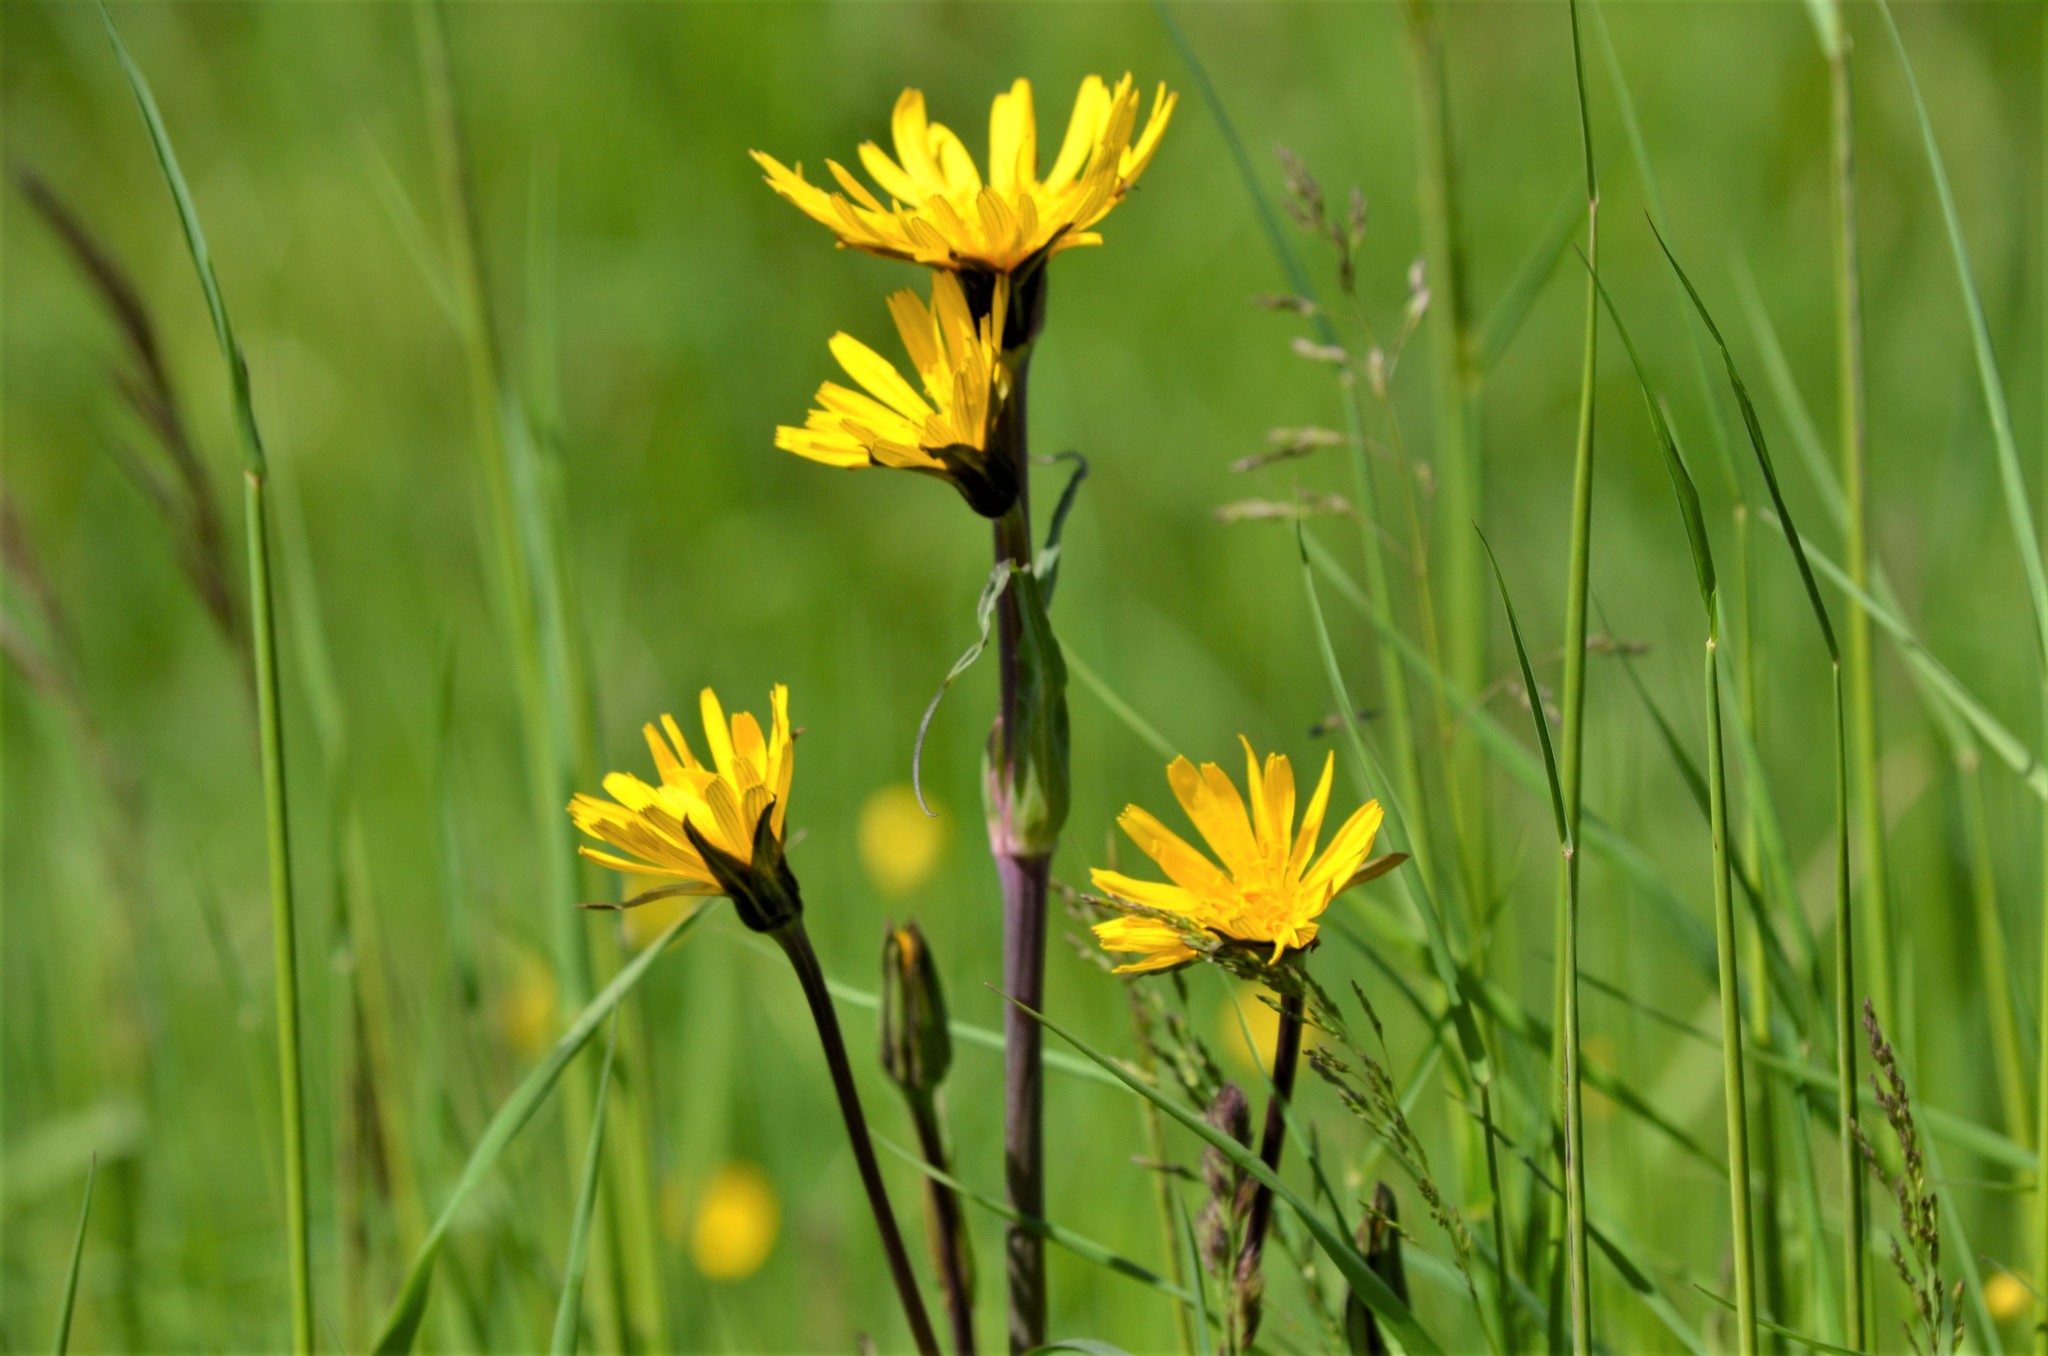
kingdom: Plantae
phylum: Tracheophyta
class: Magnoliopsida
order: Asterales
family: Asteraceae
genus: Tragopogon
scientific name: Tragopogon orientalis
